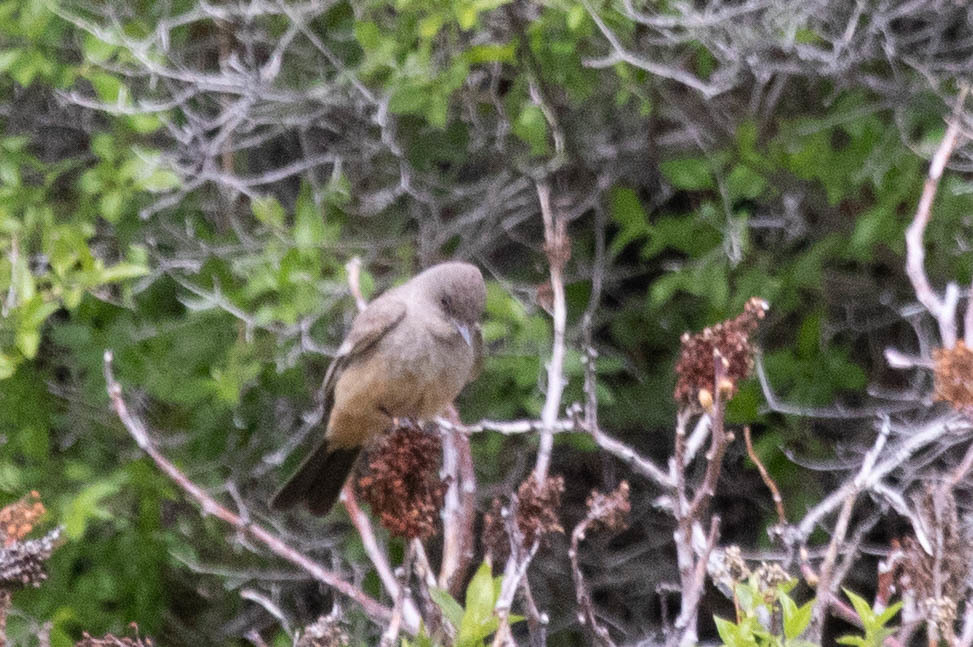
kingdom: Animalia
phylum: Chordata
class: Aves
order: Passeriformes
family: Tyrannidae
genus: Sayornis
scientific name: Sayornis saya
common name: Say's phoebe
